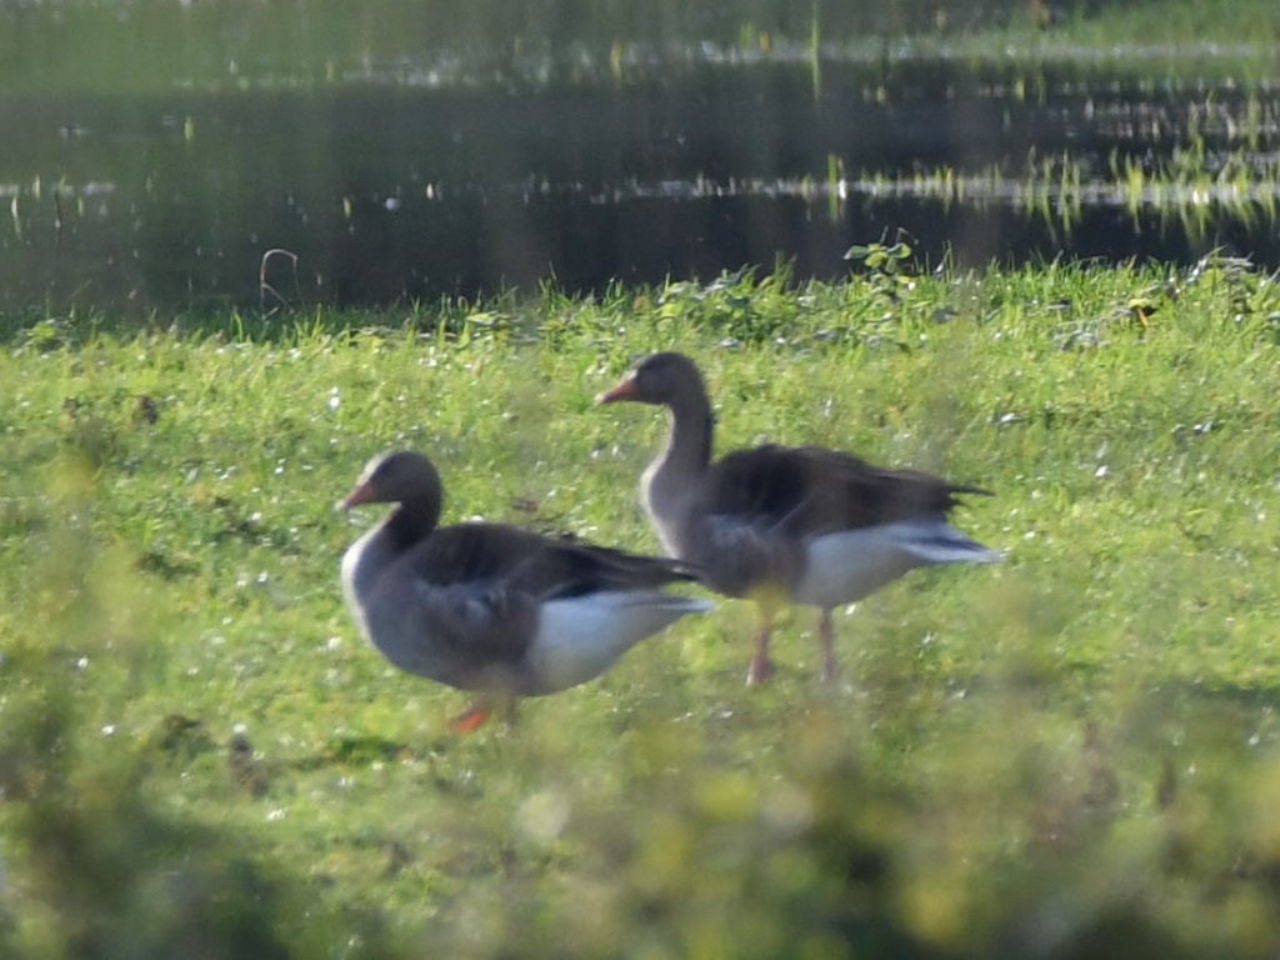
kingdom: Animalia
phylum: Chordata
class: Aves
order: Anseriformes
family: Anatidae
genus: Anser
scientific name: Anser anser
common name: Greylag goose
